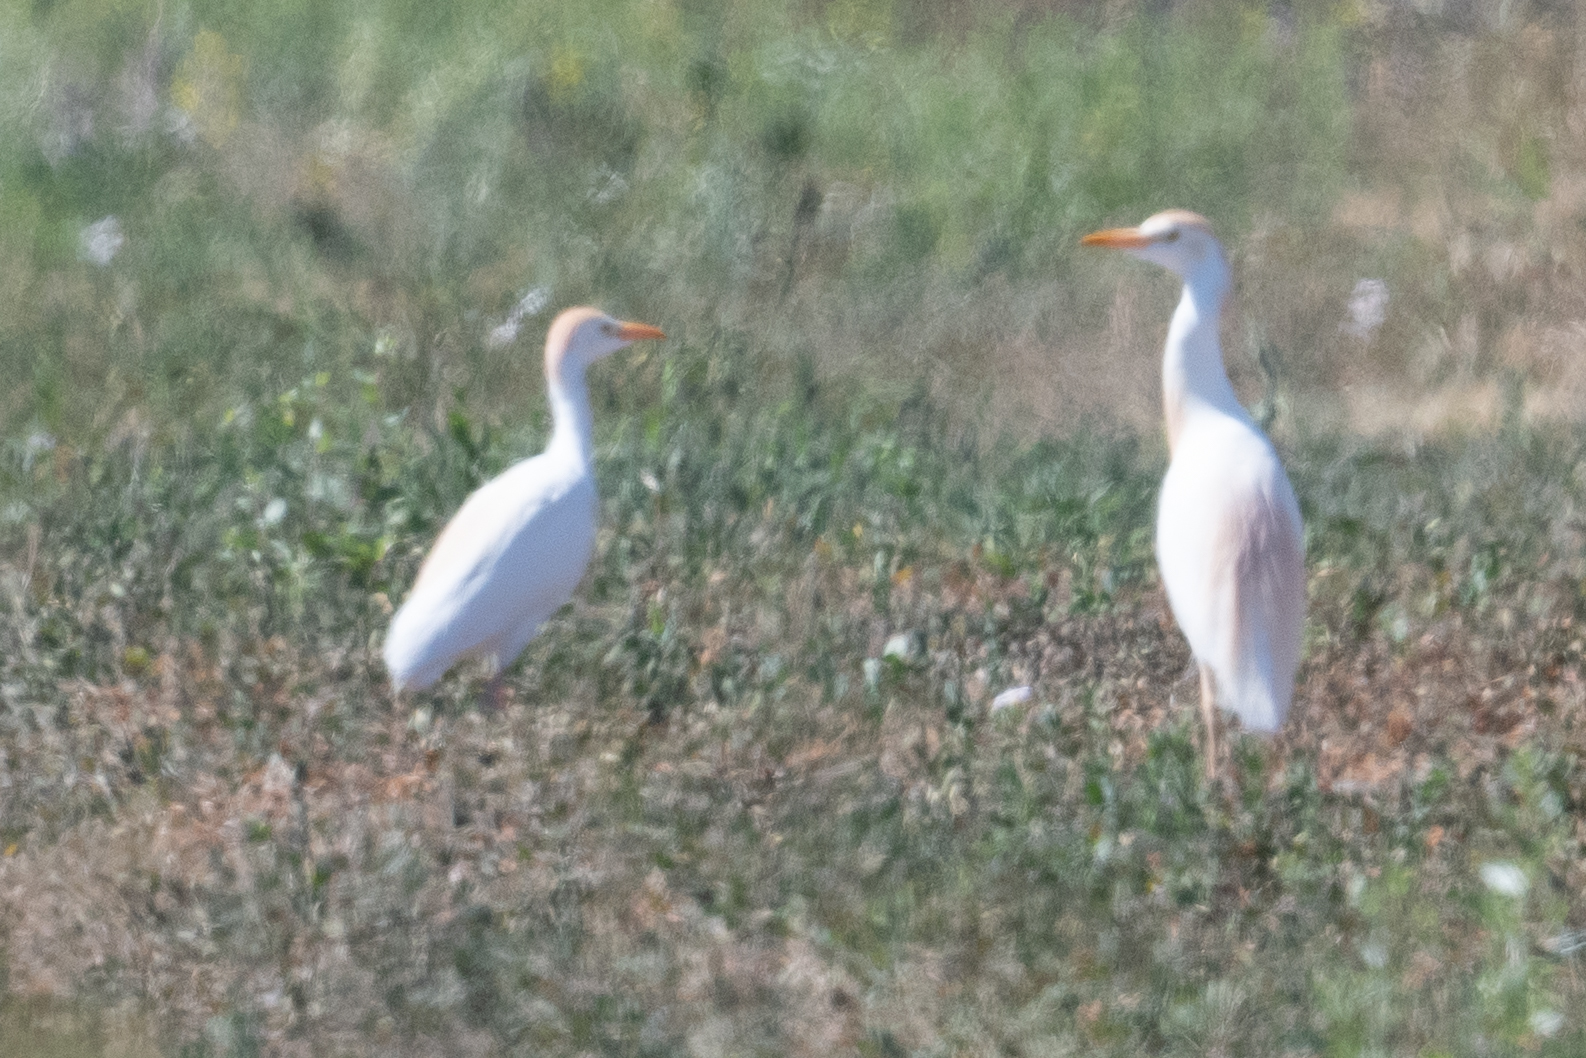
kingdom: Animalia
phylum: Chordata
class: Aves
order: Pelecaniformes
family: Ardeidae
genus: Bubulcus
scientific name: Bubulcus ibis
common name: Cattle egret
